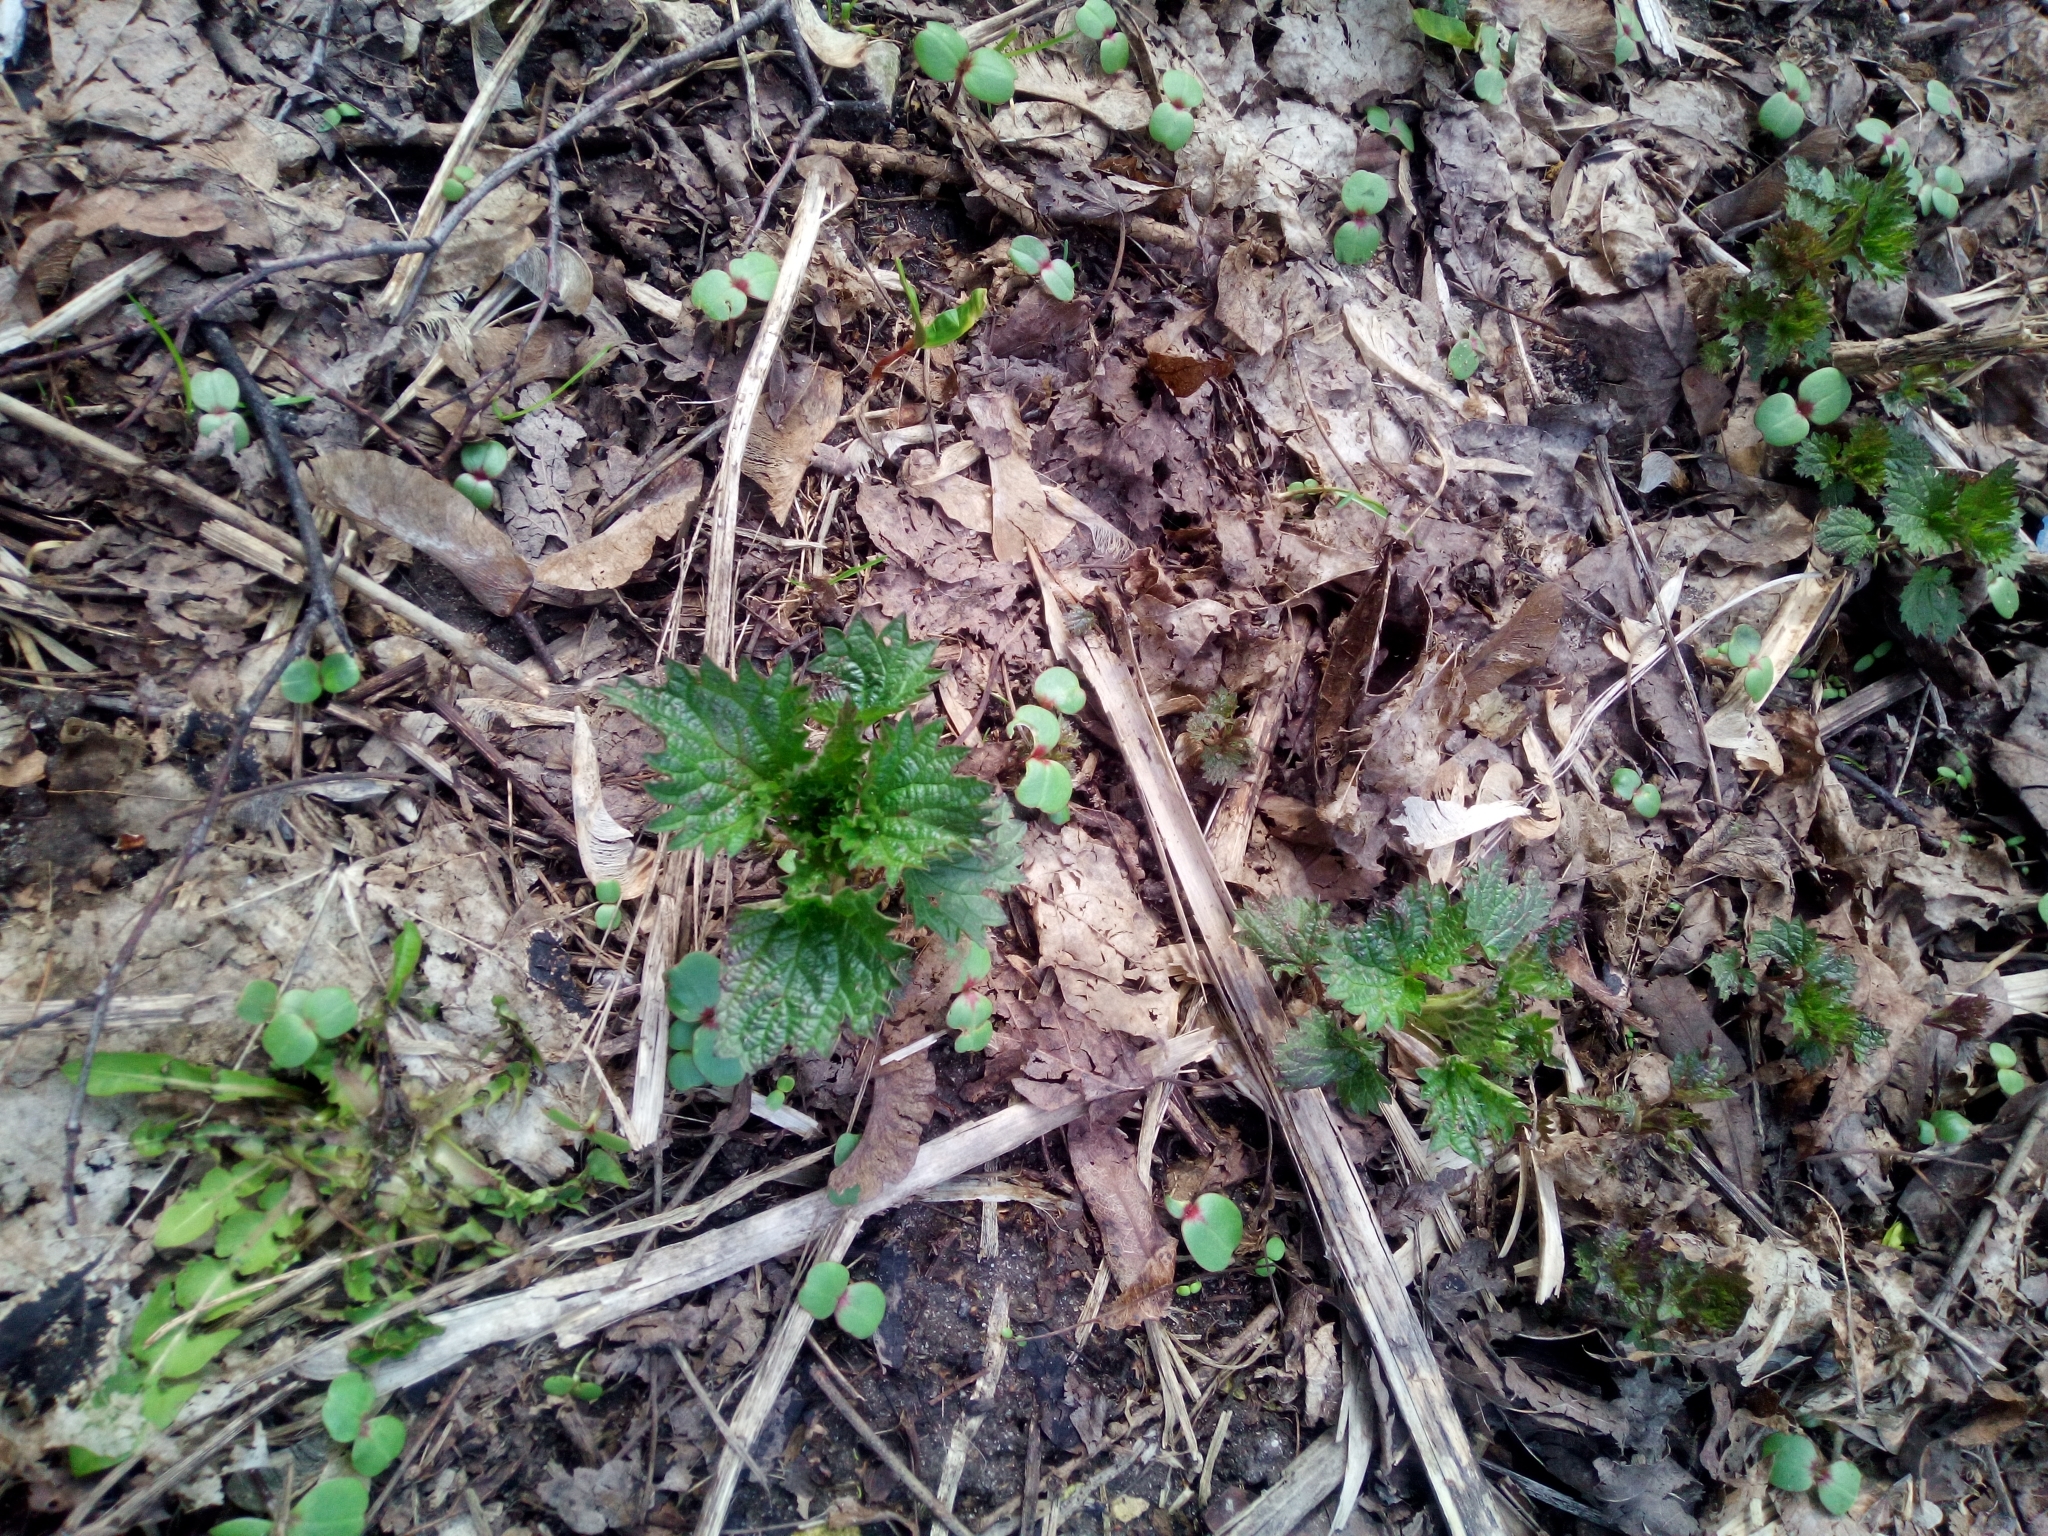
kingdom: Plantae
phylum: Tracheophyta
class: Magnoliopsida
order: Rosales
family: Urticaceae
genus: Urtica
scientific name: Urtica dioica
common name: Common nettle
